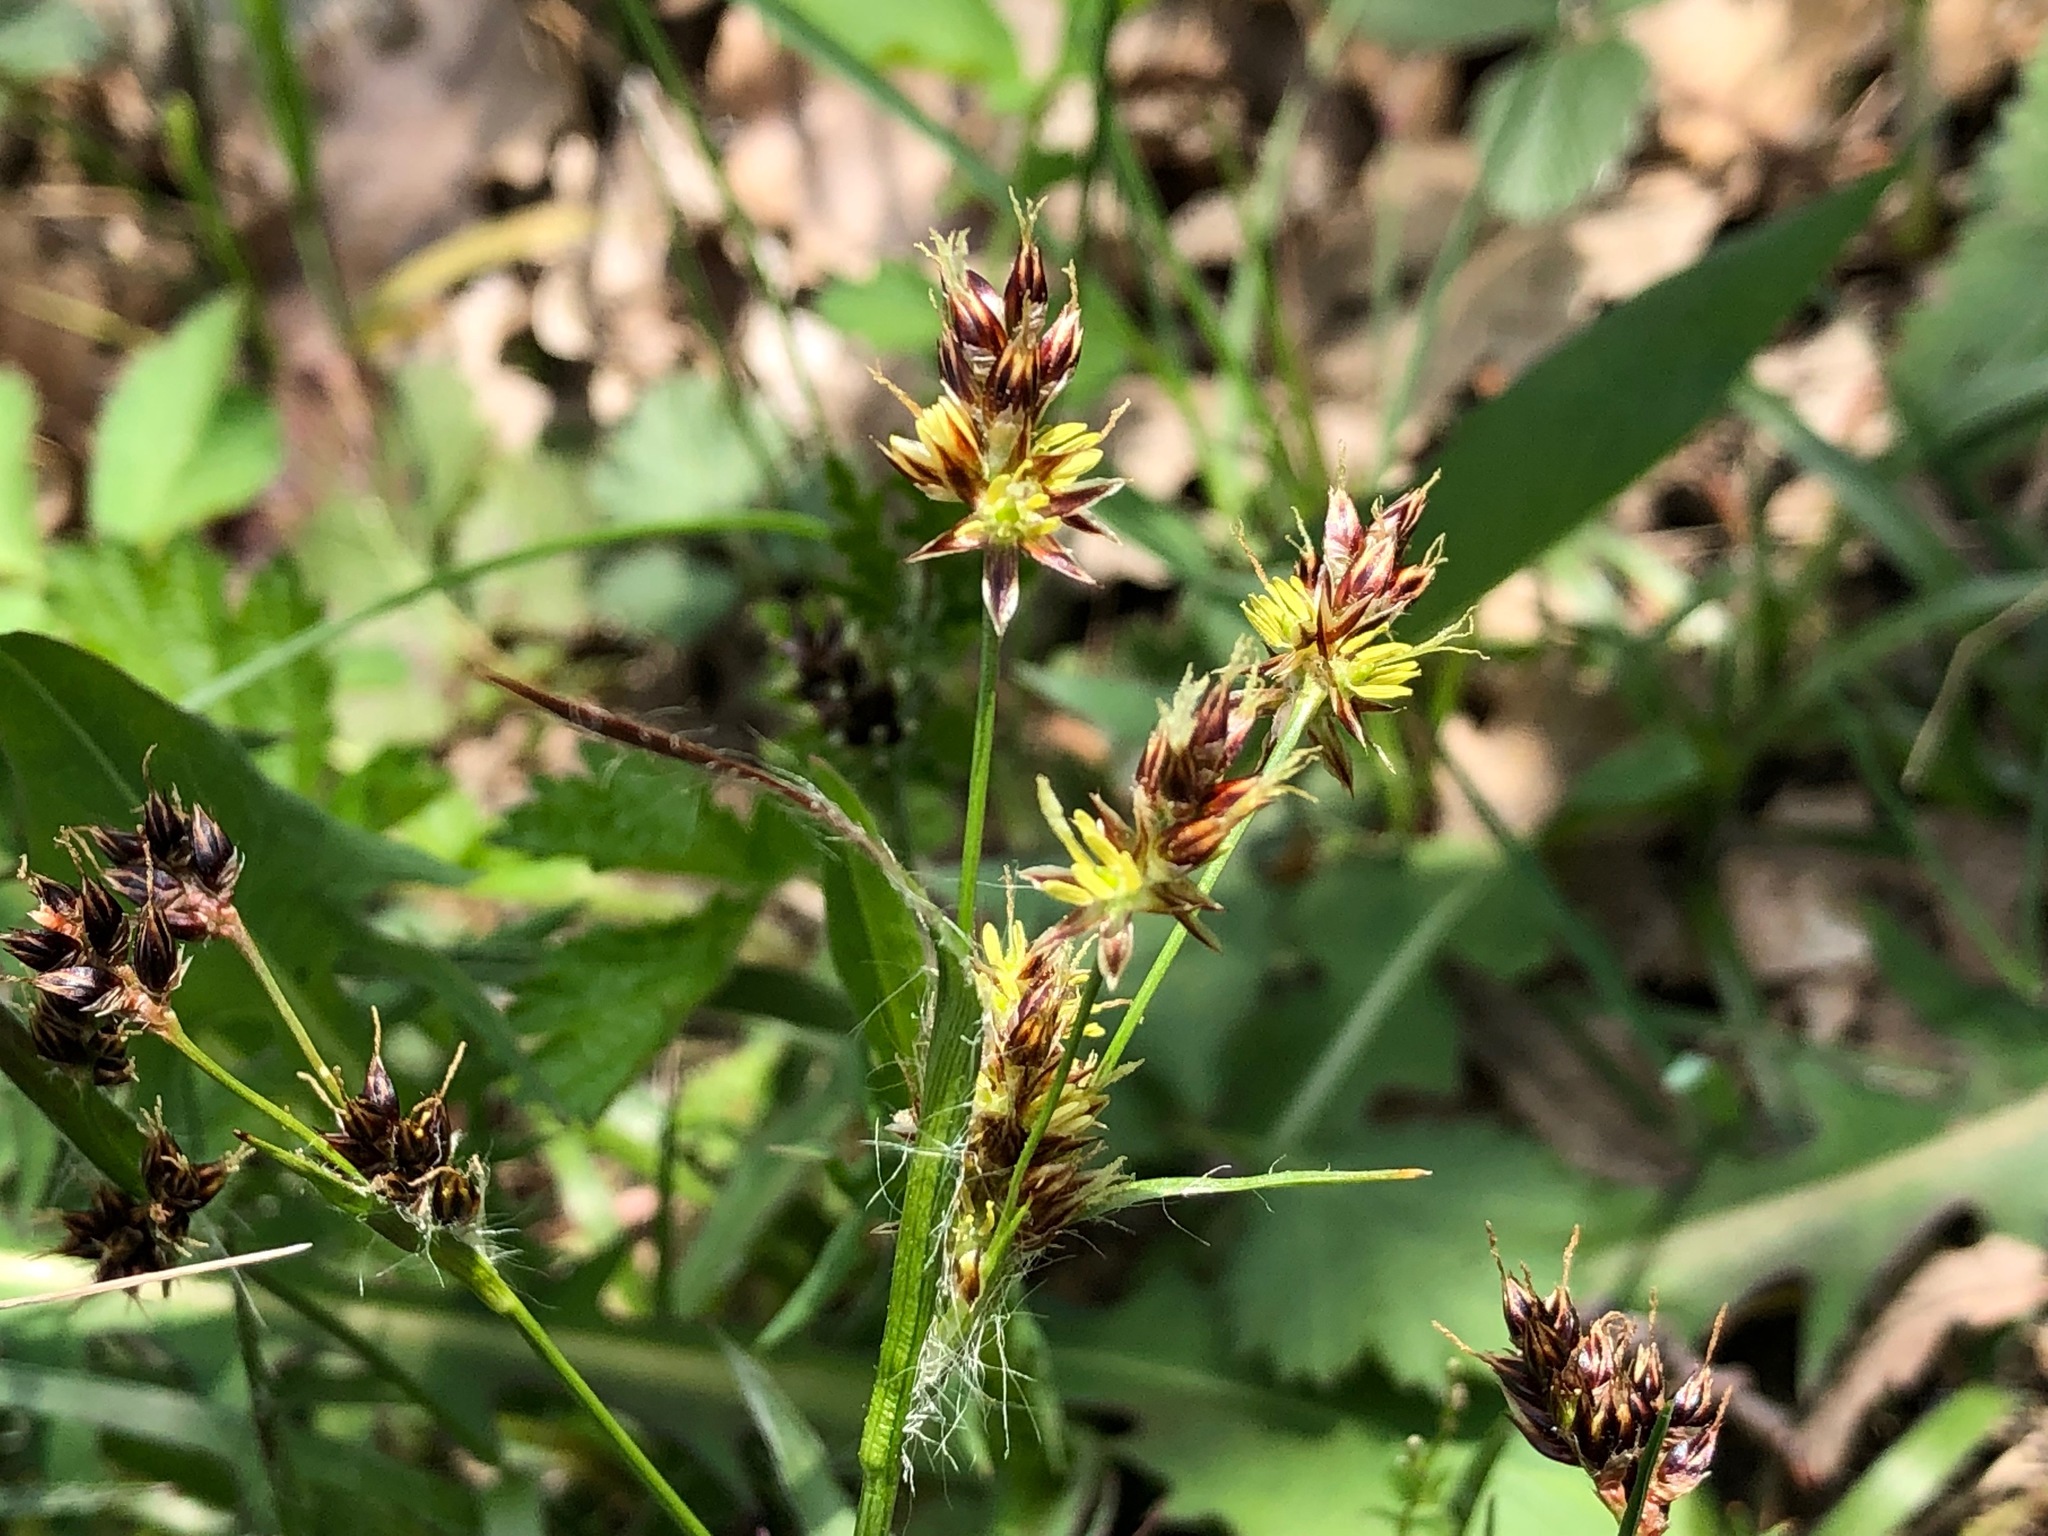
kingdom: Plantae
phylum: Tracheophyta
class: Liliopsida
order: Poales
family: Juncaceae
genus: Luzula
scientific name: Luzula campestris
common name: Field wood-rush
